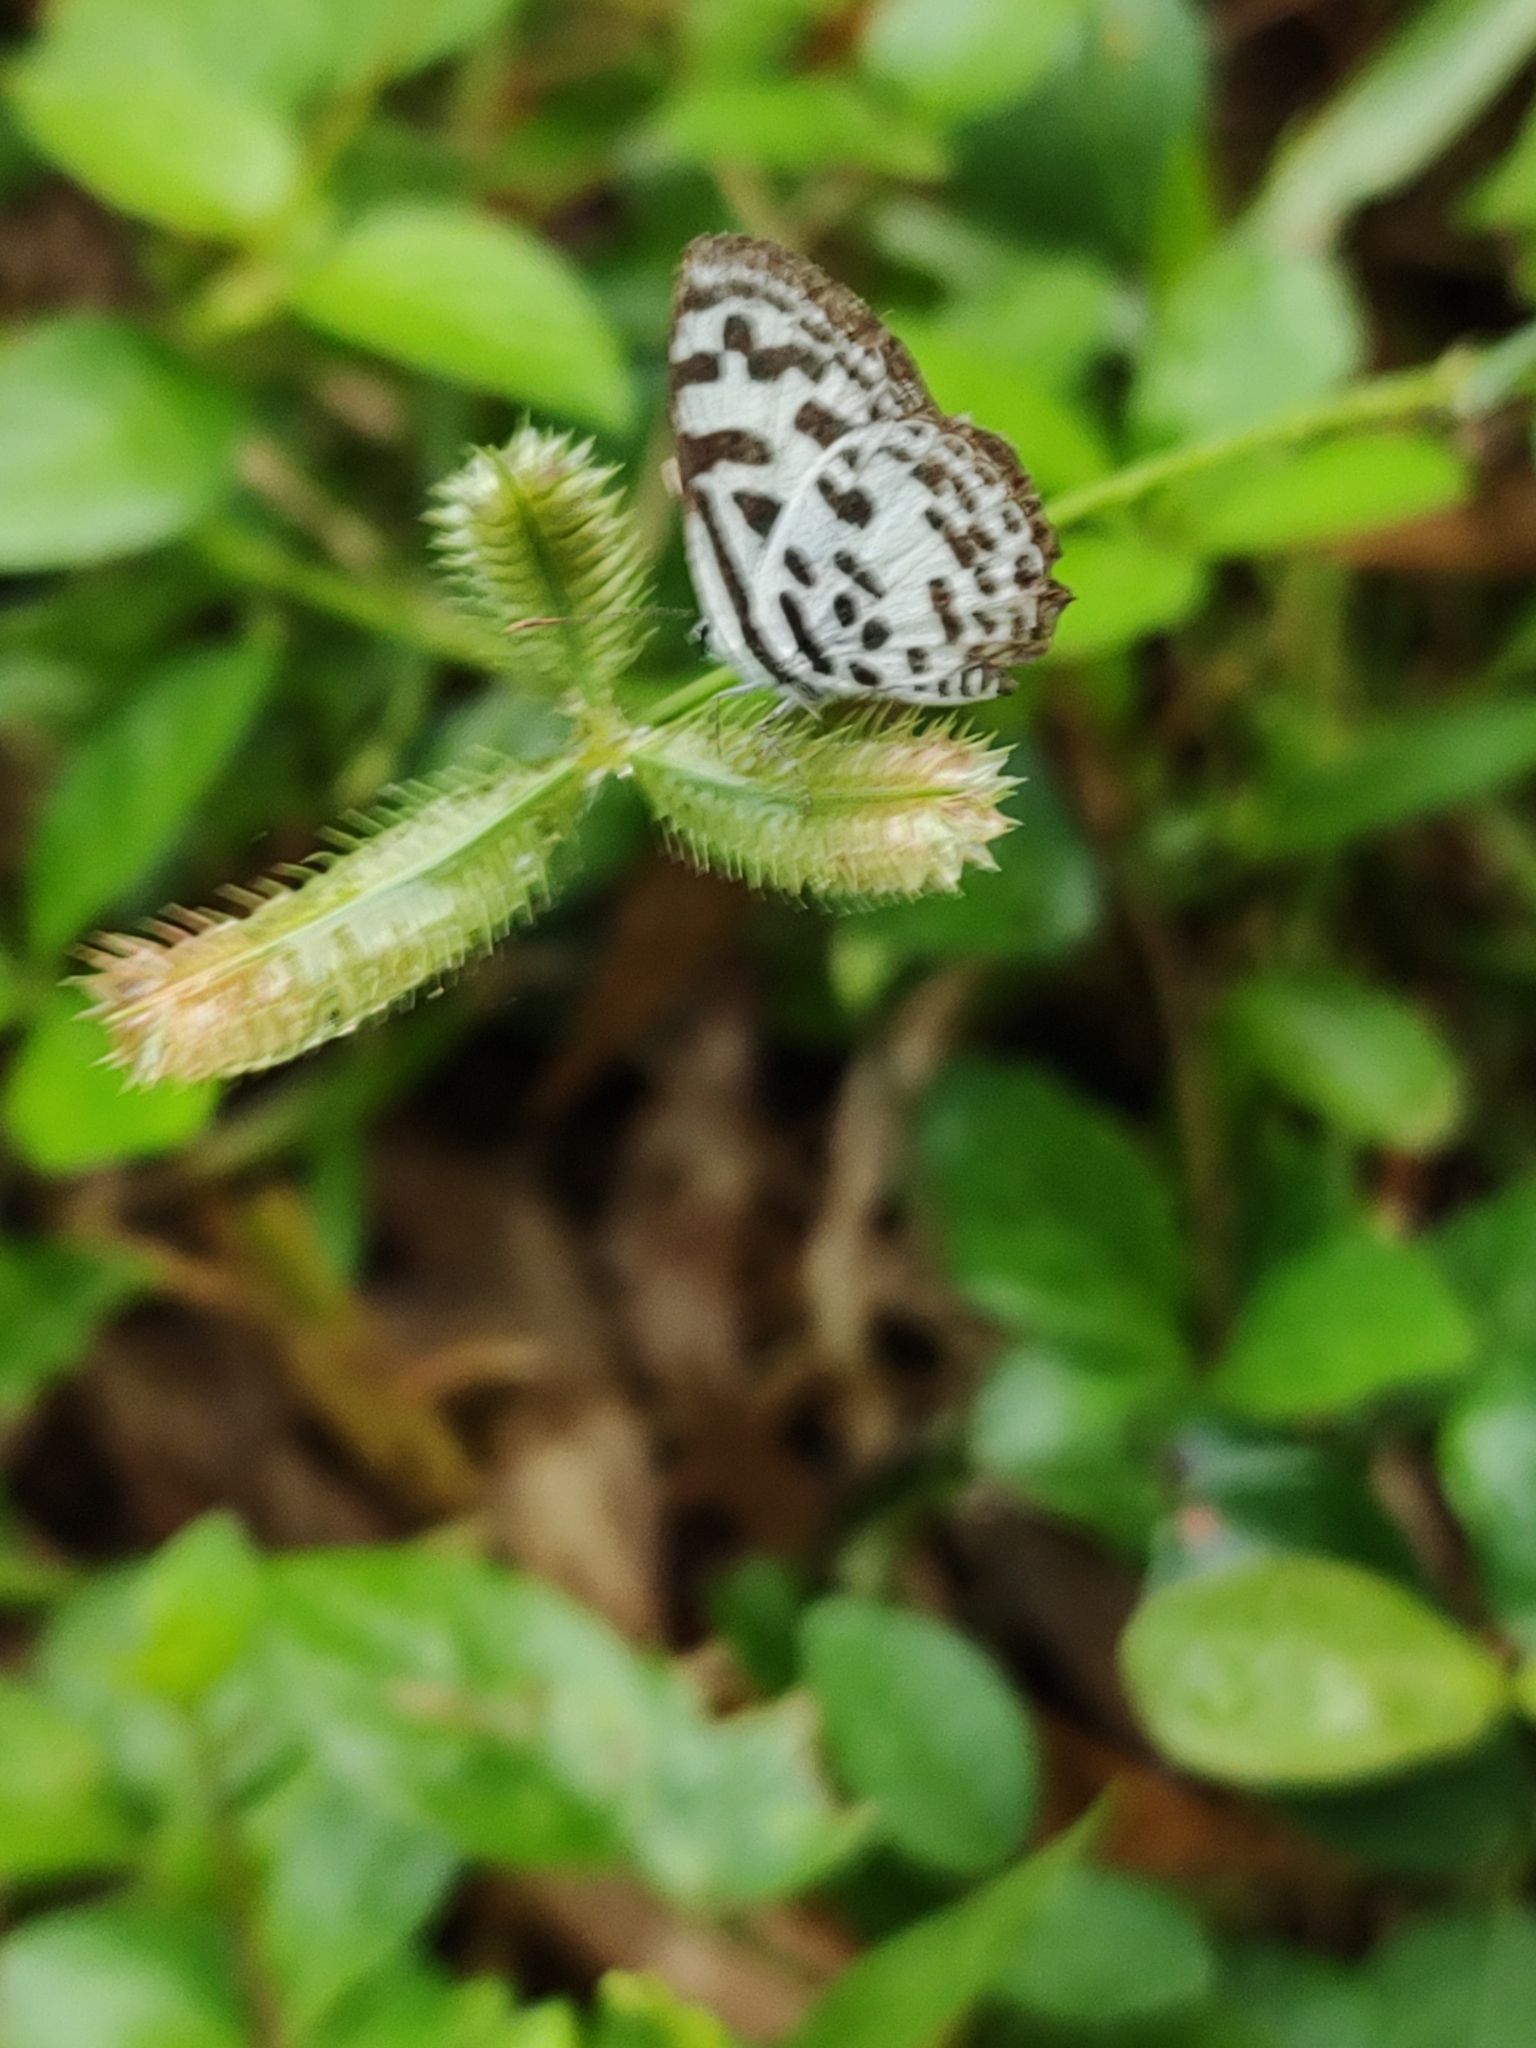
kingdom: Animalia
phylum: Arthropoda
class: Insecta
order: Lepidoptera
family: Lycaenidae
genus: Castalius
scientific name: Castalius rosimon
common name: Common pierrot
